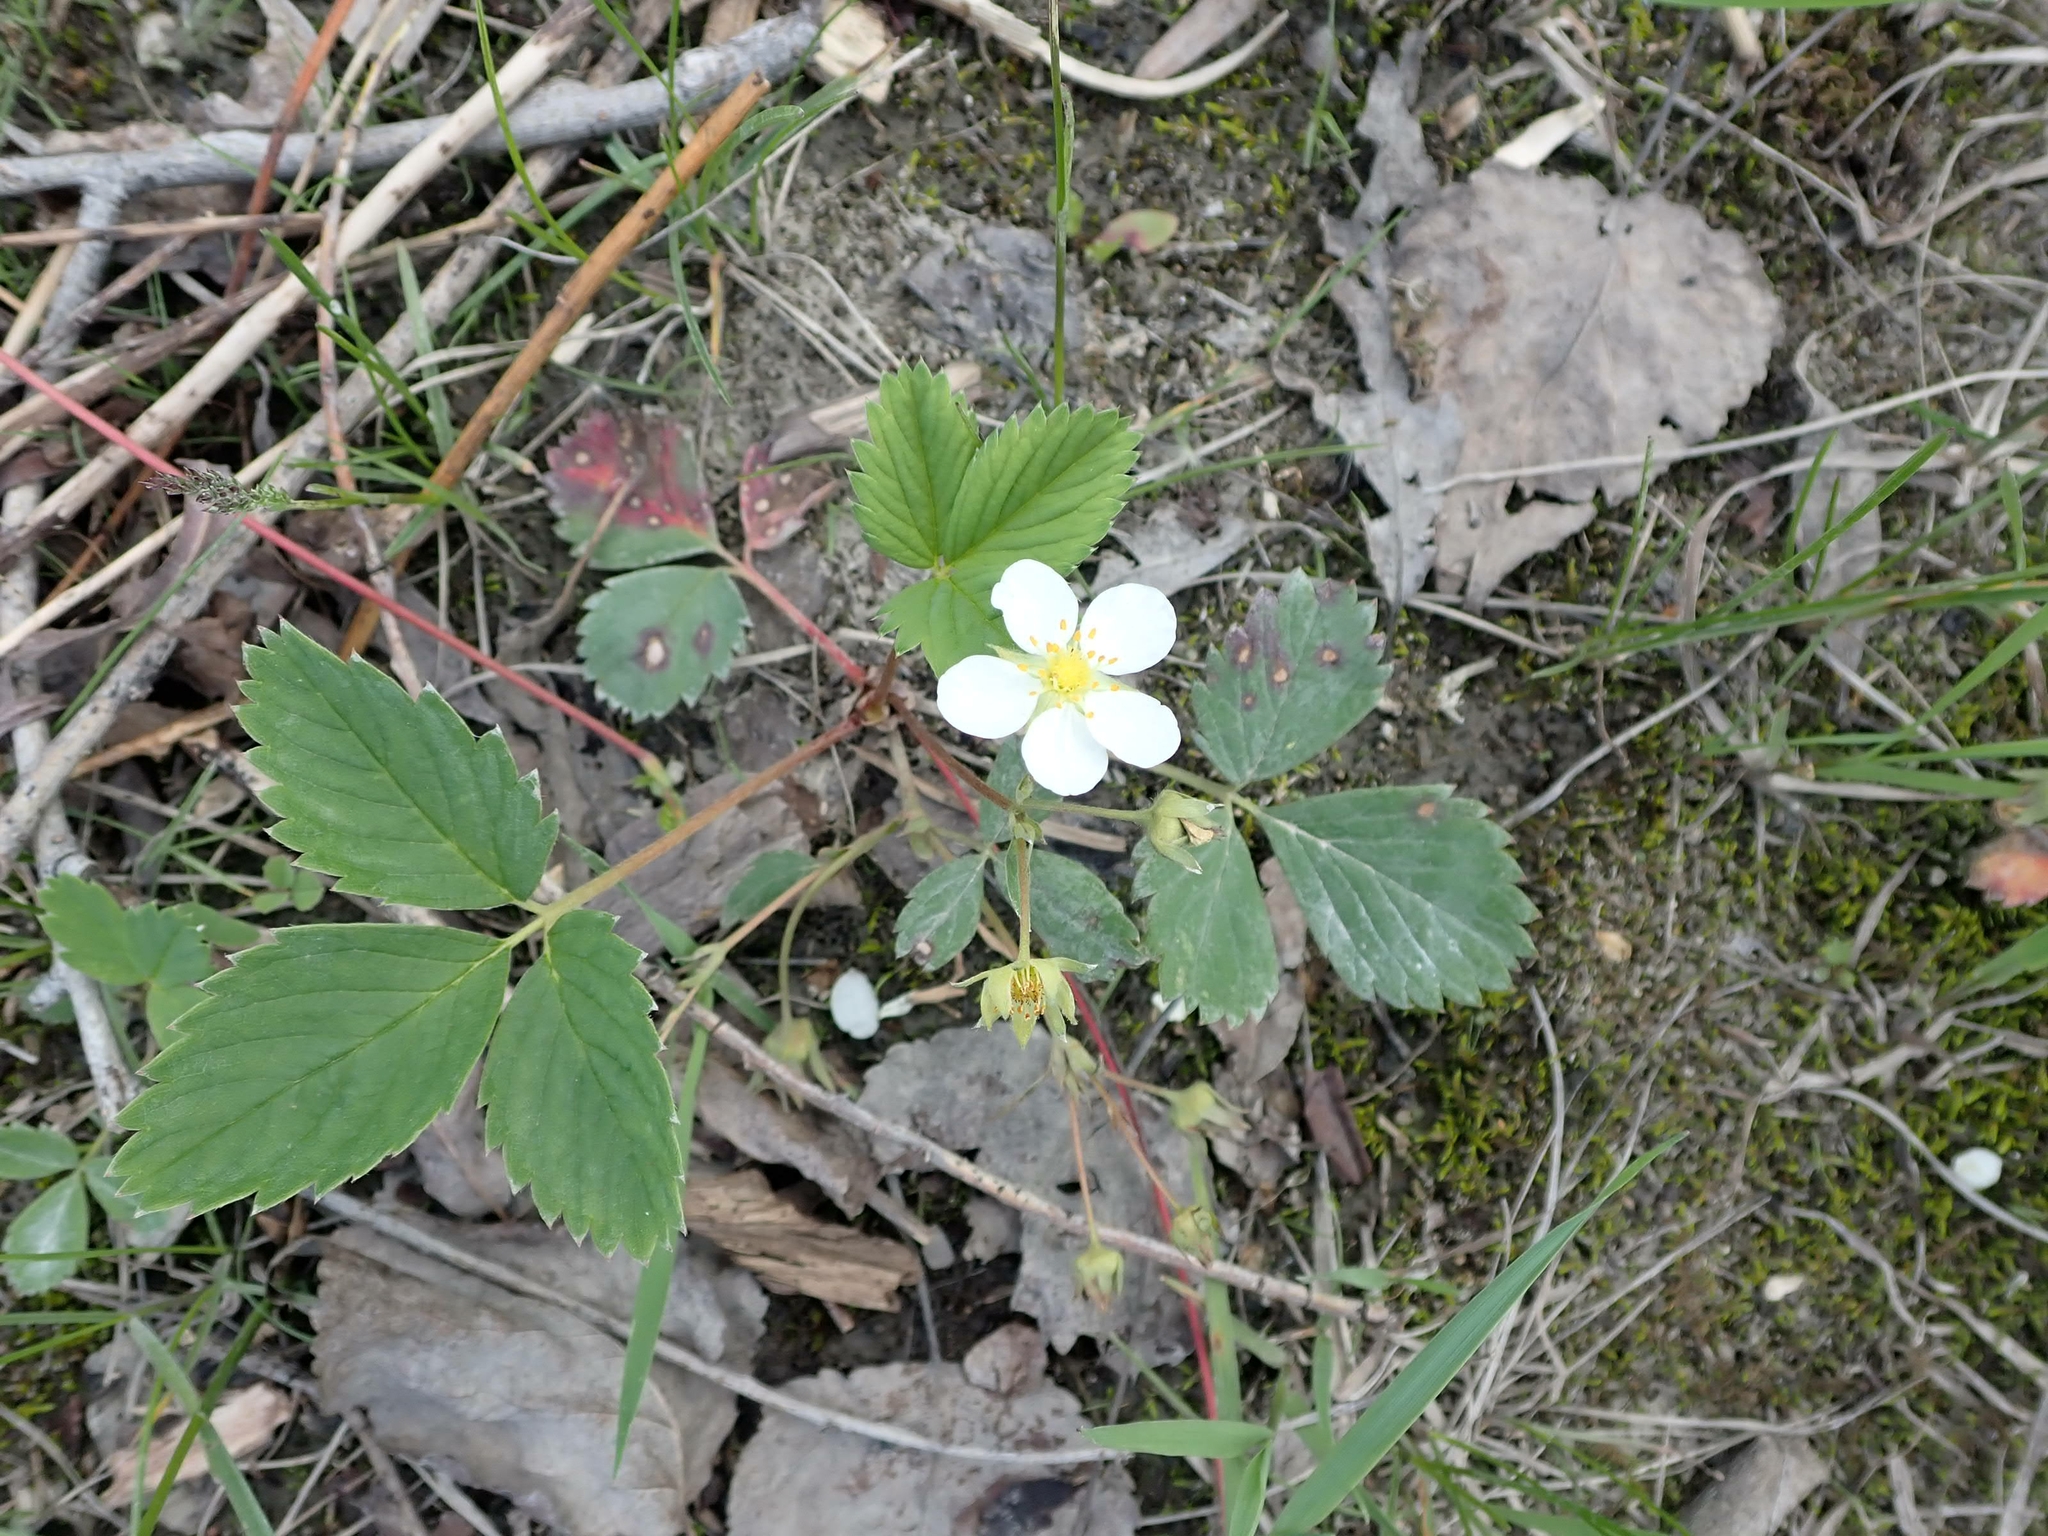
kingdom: Plantae
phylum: Tracheophyta
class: Magnoliopsida
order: Rosales
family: Rosaceae
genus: Fragaria
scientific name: Fragaria virginiana
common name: Thickleaved wild strawberry
